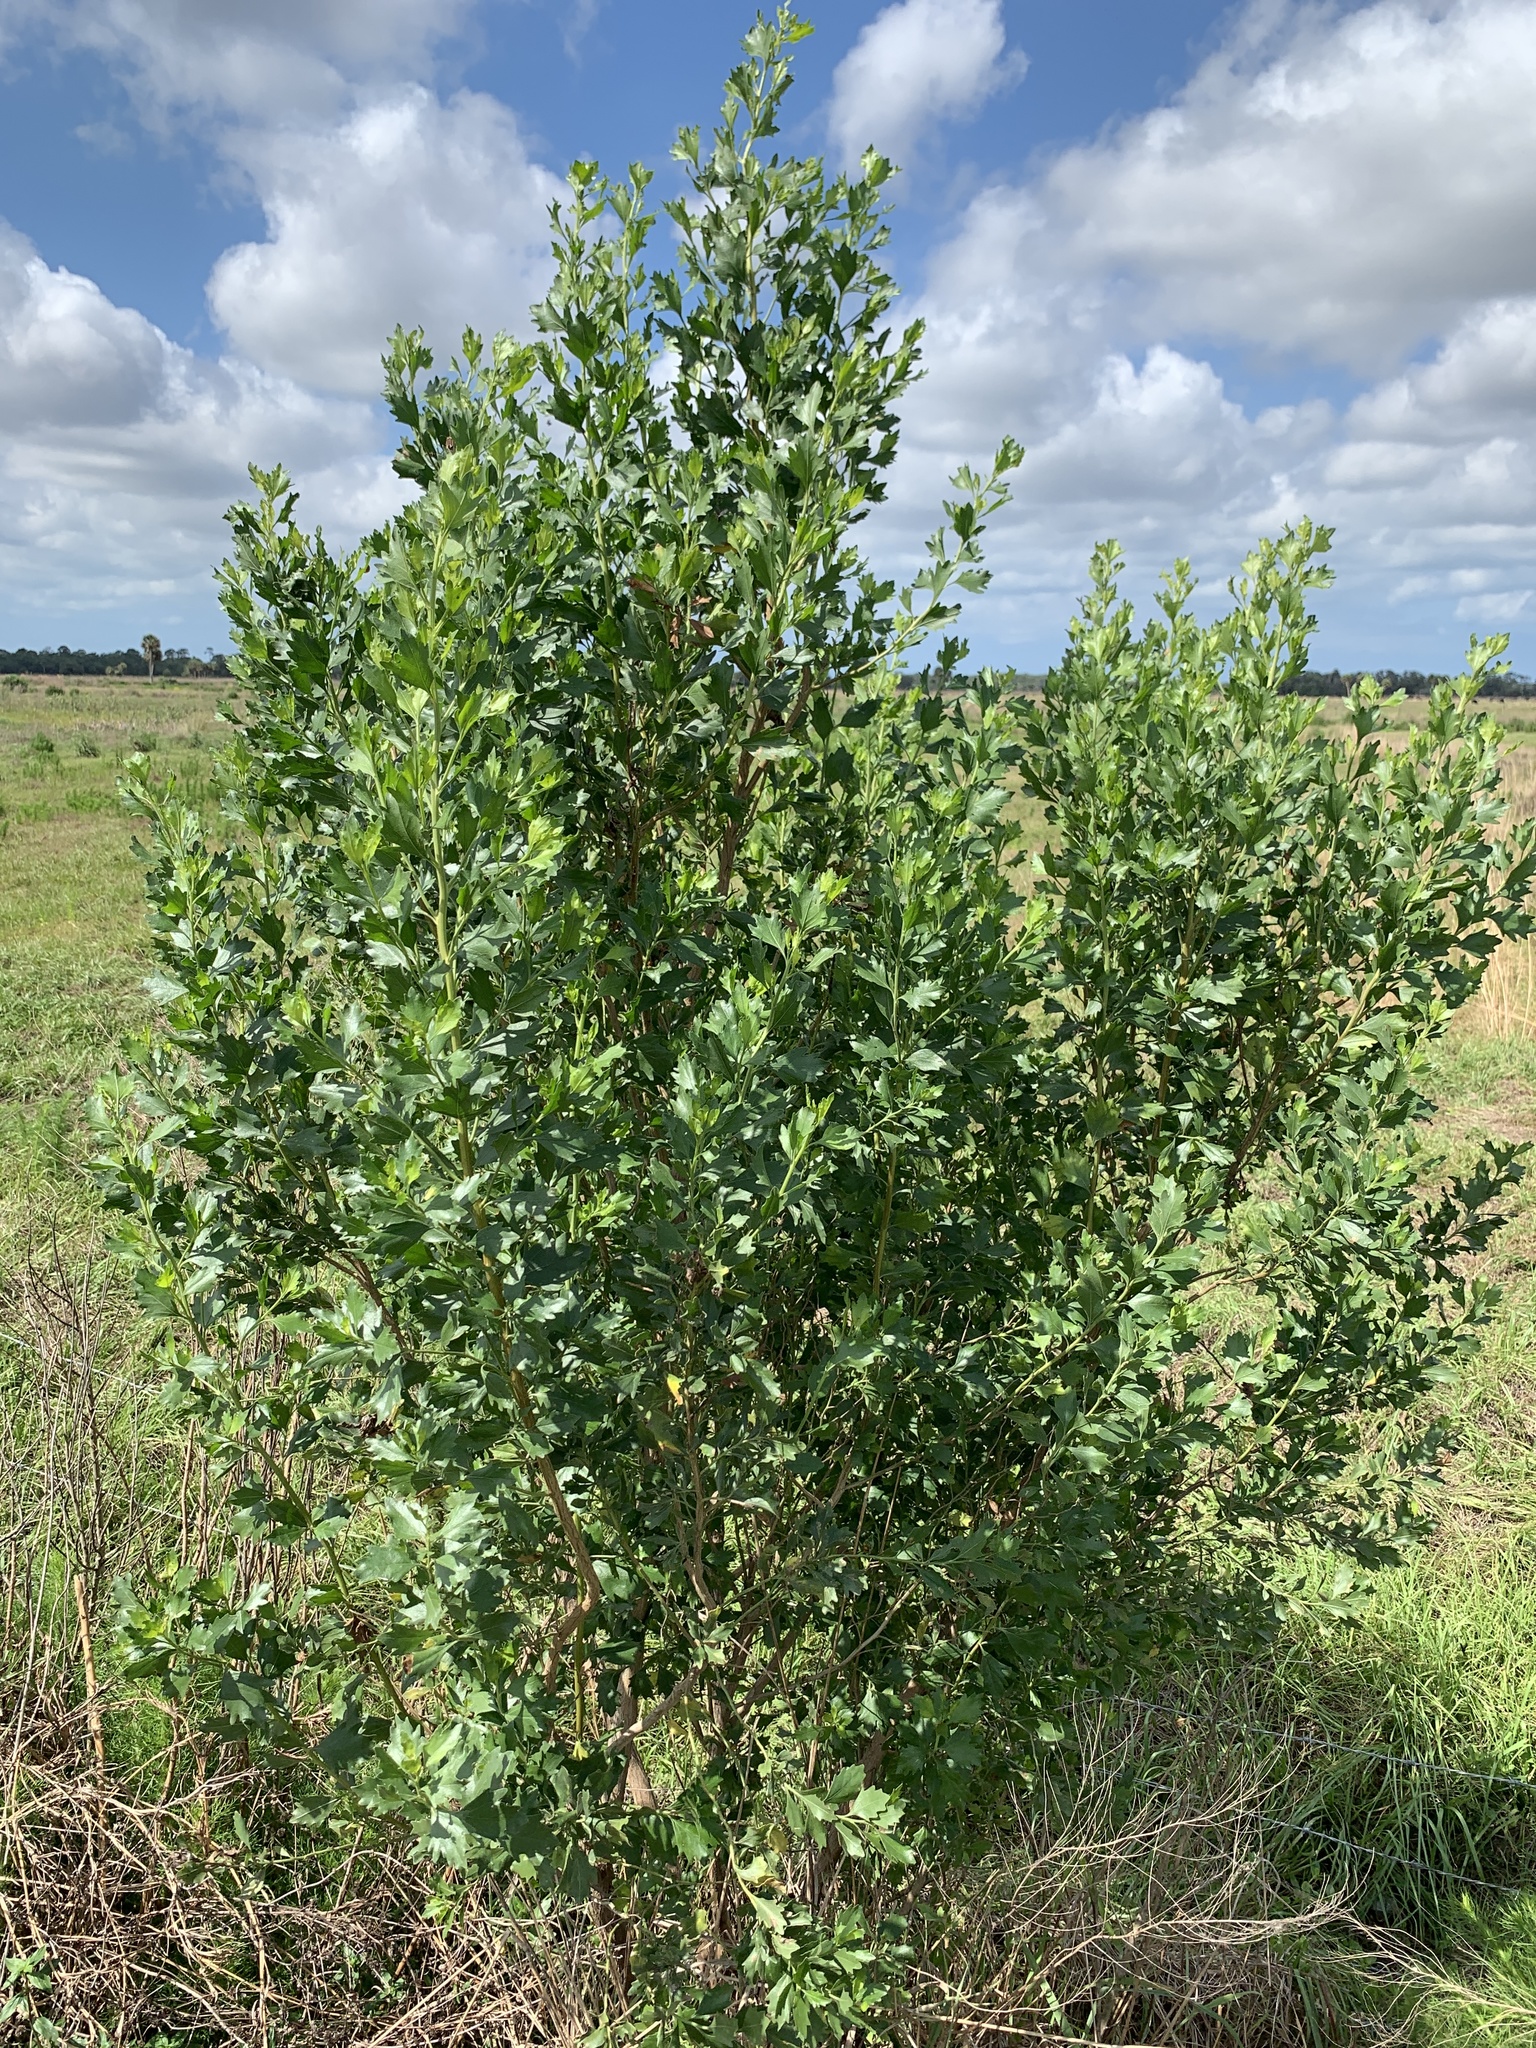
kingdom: Plantae
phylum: Tracheophyta
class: Magnoliopsida
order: Asterales
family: Asteraceae
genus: Baccharis
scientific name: Baccharis halimifolia
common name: Eastern baccharis
